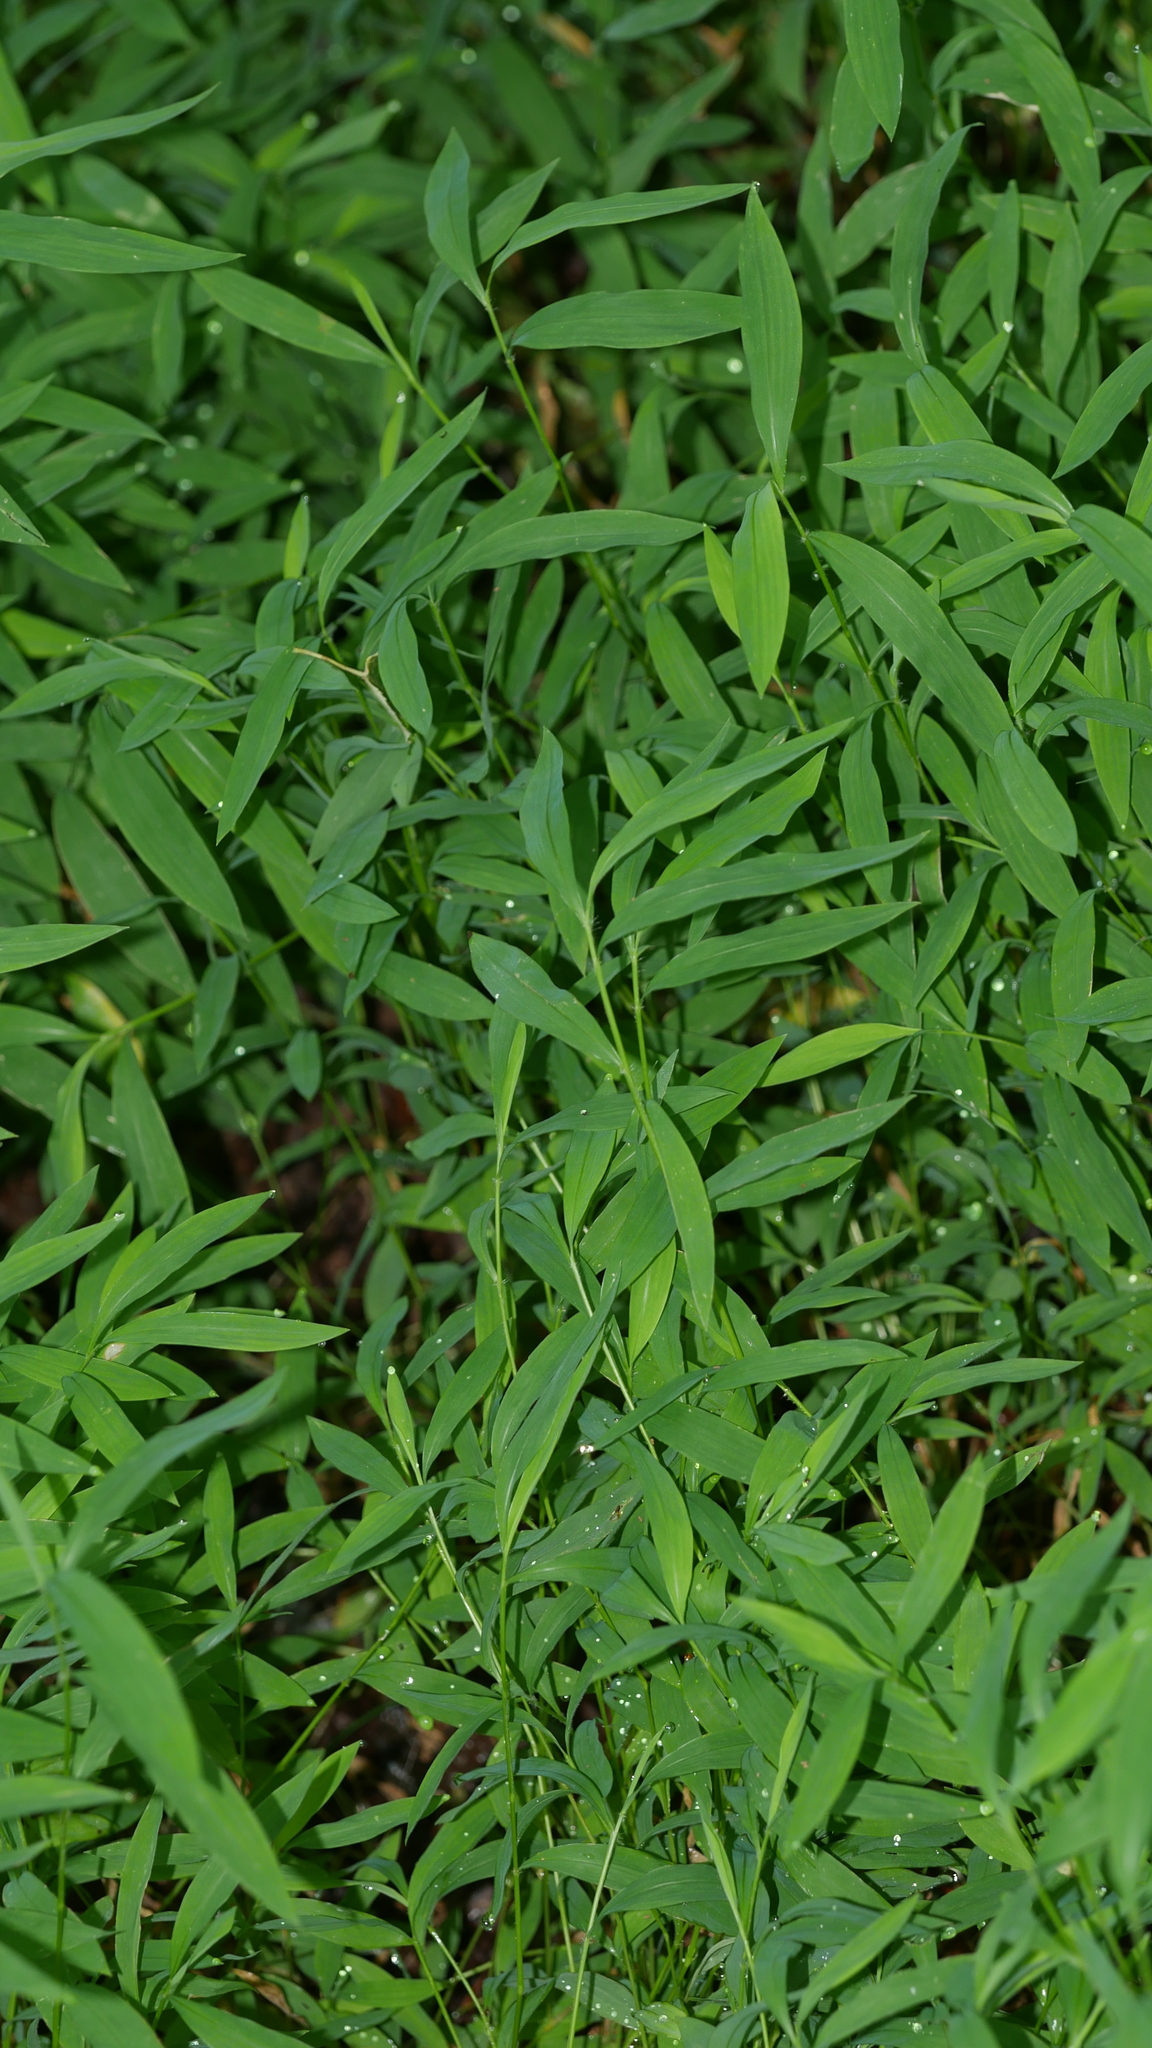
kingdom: Plantae
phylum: Tracheophyta
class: Liliopsida
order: Poales
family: Poaceae
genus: Microstegium
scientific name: Microstegium vimineum
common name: Japanese stiltgrass
